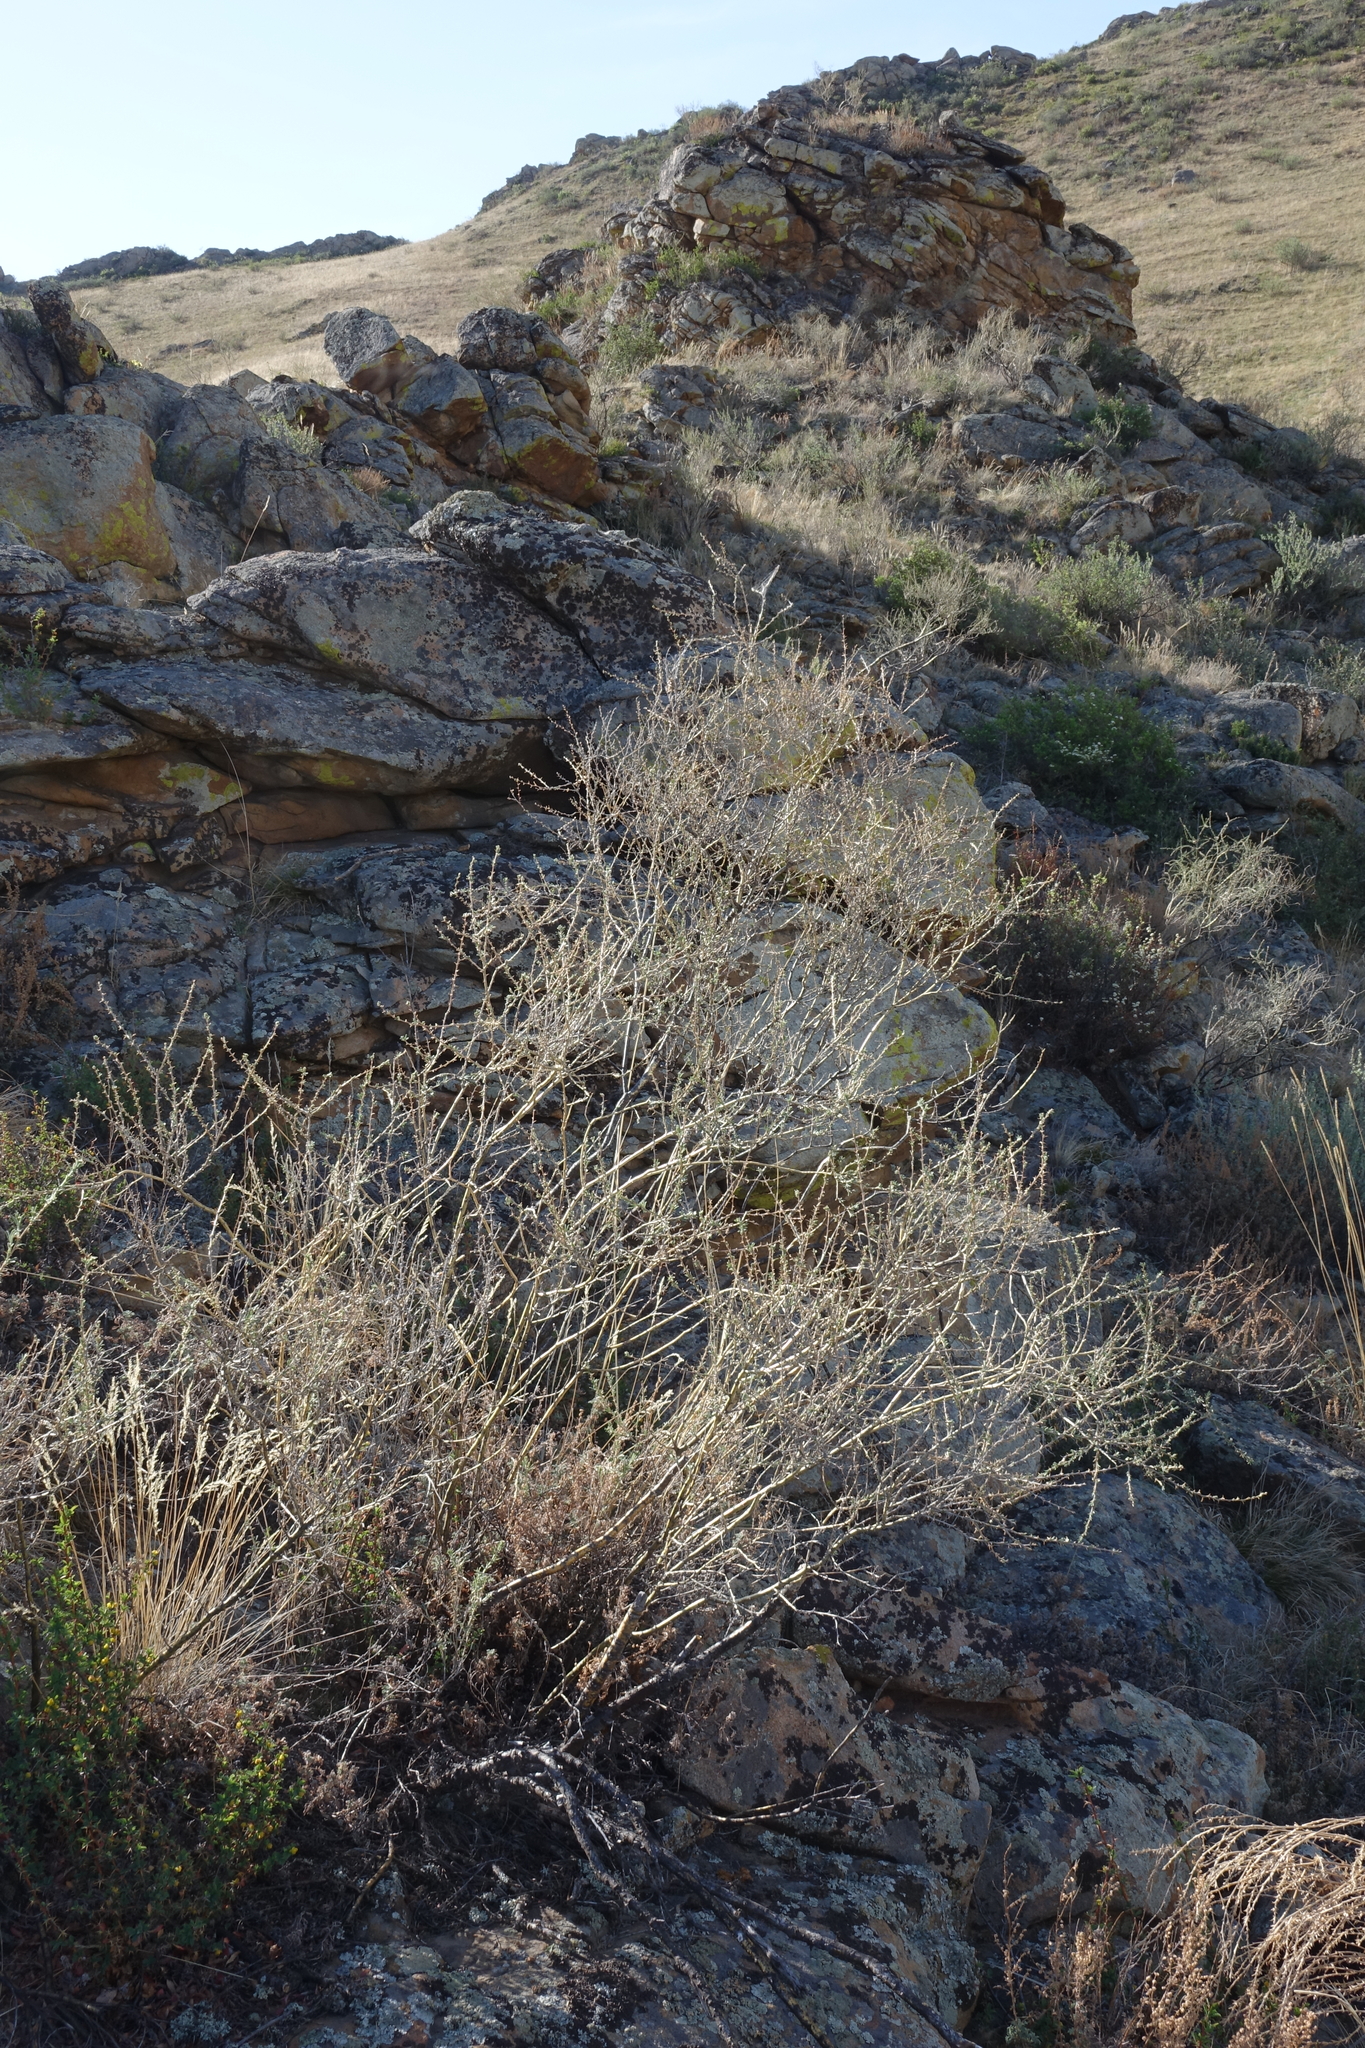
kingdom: Plantae
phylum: Tracheophyta
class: Magnoliopsida
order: Fabales
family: Fabaceae
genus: Caragana
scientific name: Caragana pygmaea
